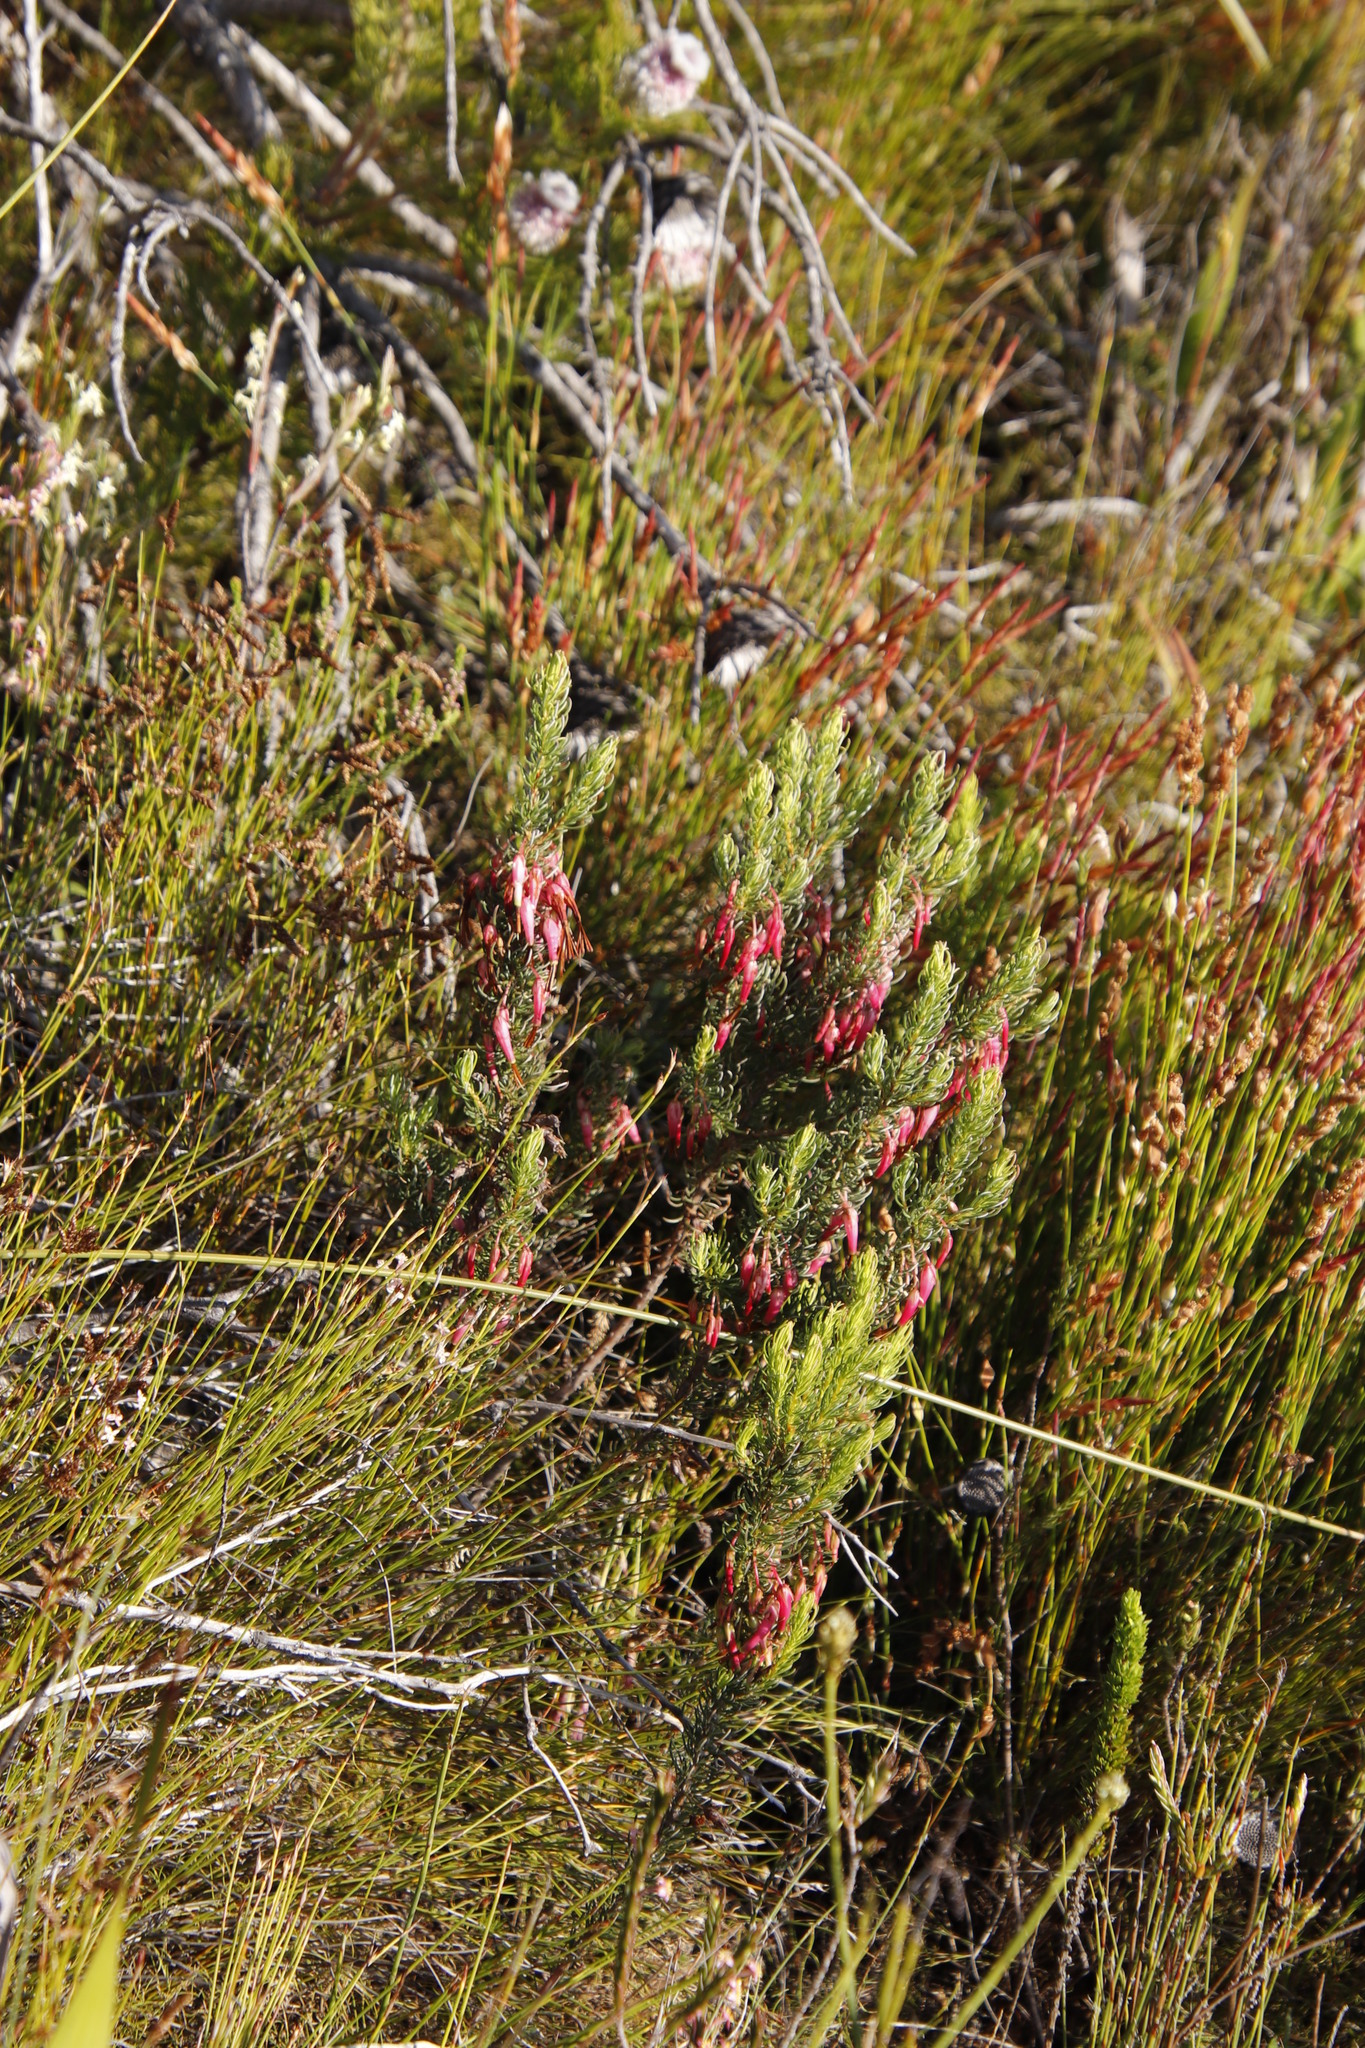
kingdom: Plantae
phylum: Tracheophyta
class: Magnoliopsida
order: Ericales
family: Ericaceae
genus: Erica
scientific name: Erica plukenetii
